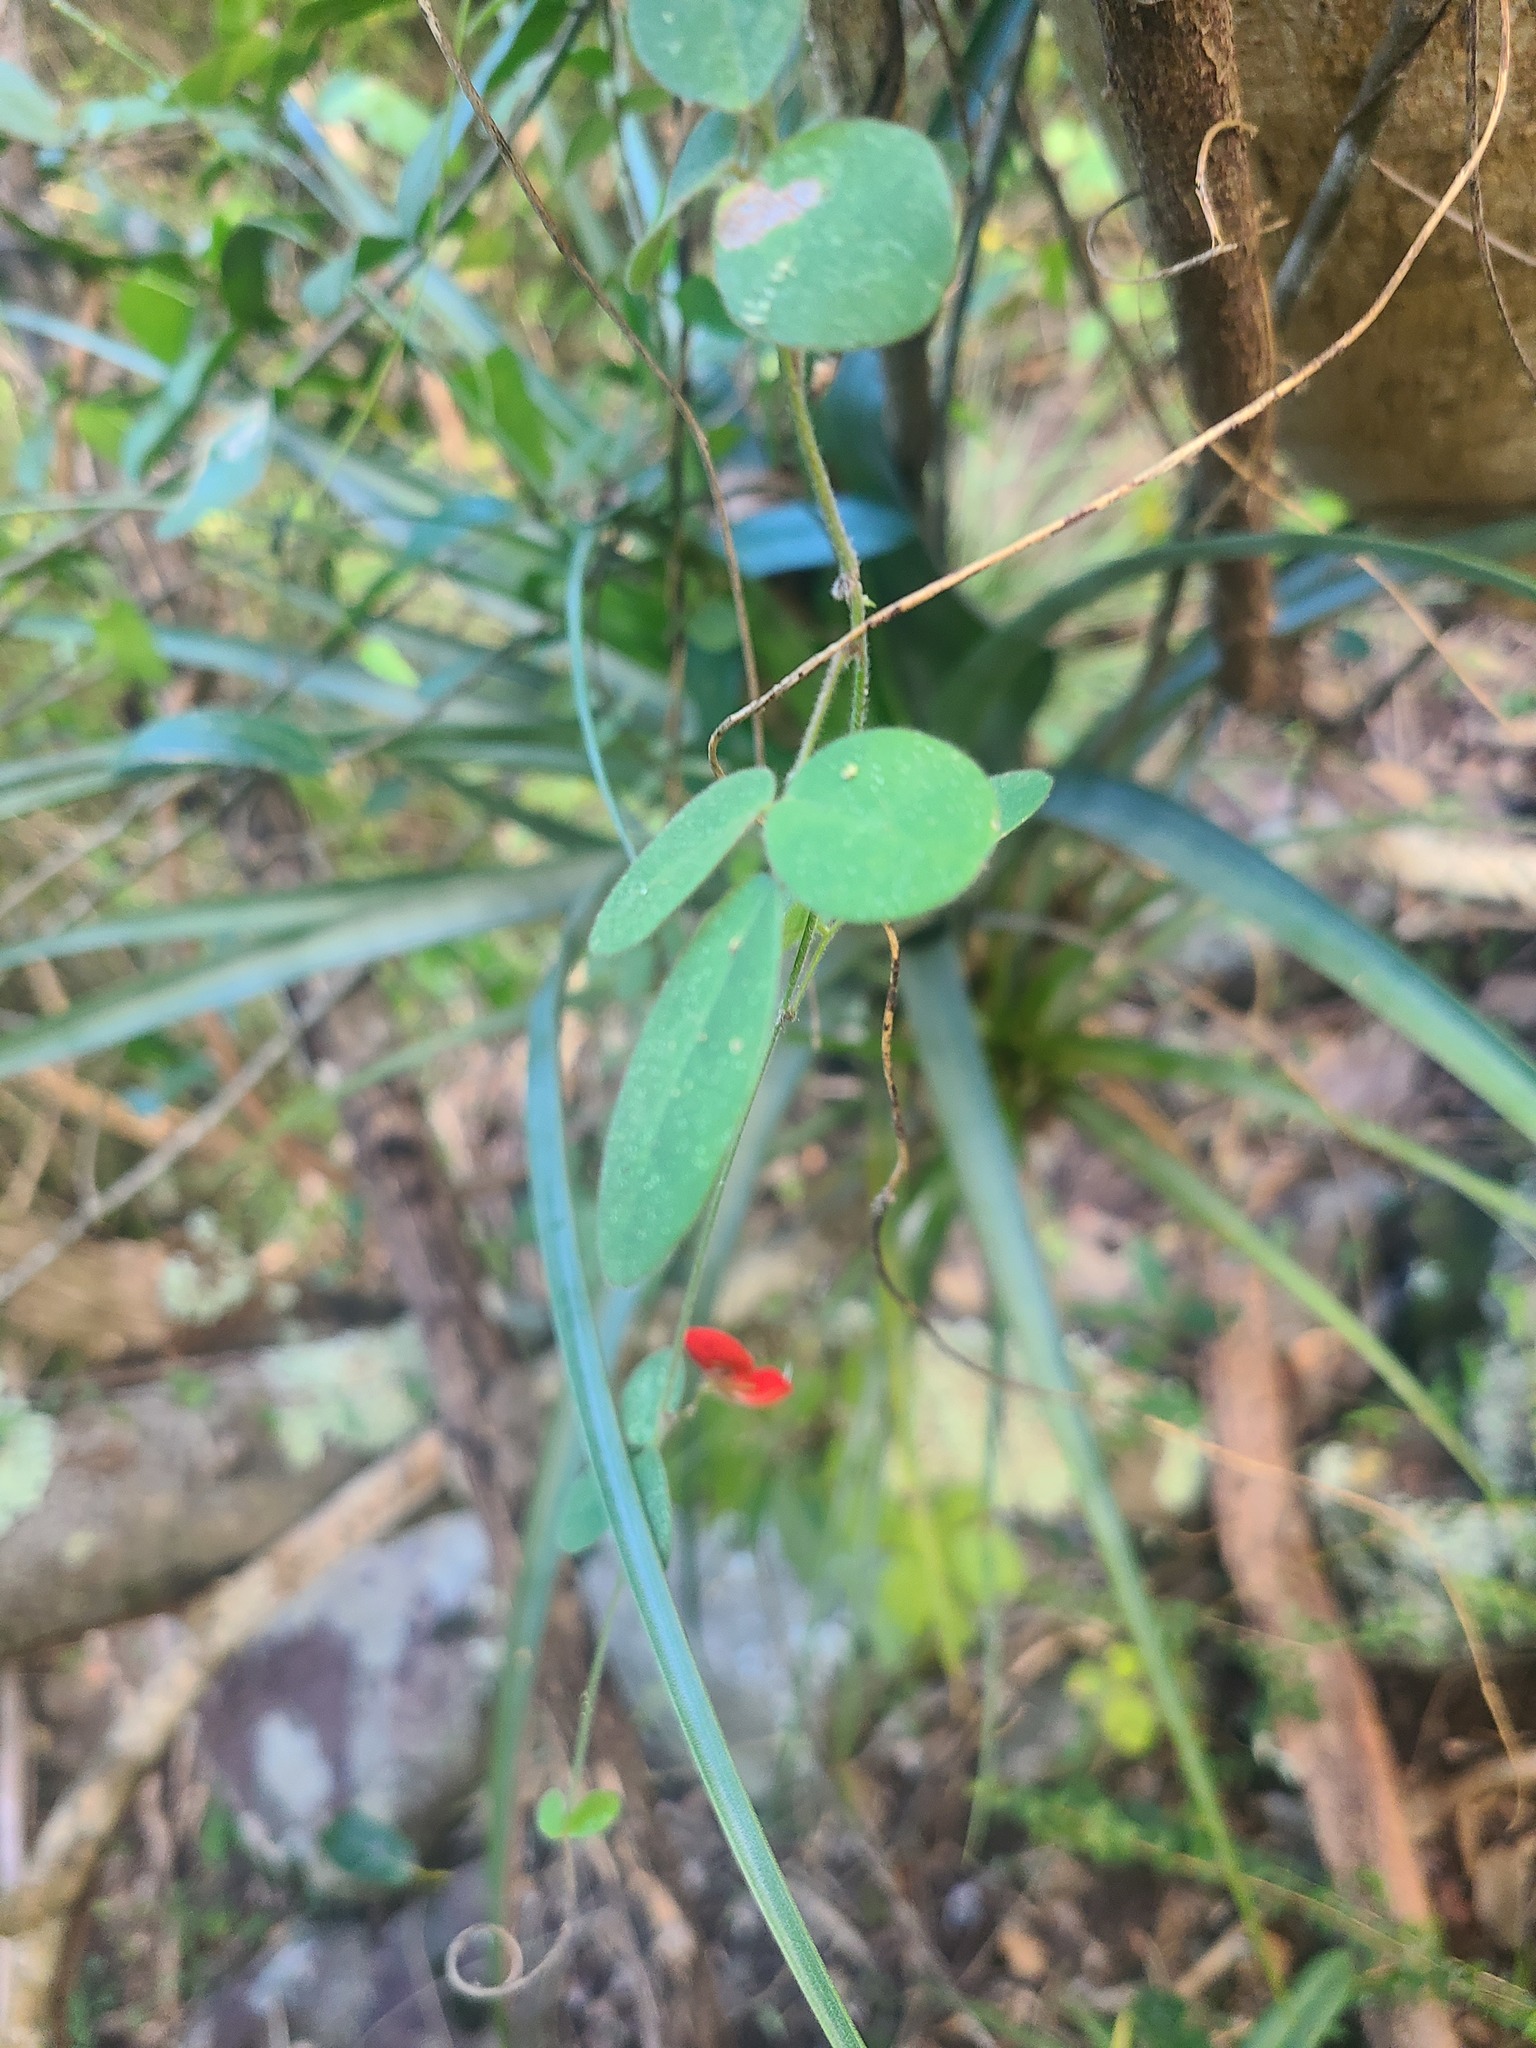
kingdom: Plantae
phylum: Tracheophyta
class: Magnoliopsida
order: Fabales
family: Fabaceae
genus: Galactia
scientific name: Galactia eggersii
